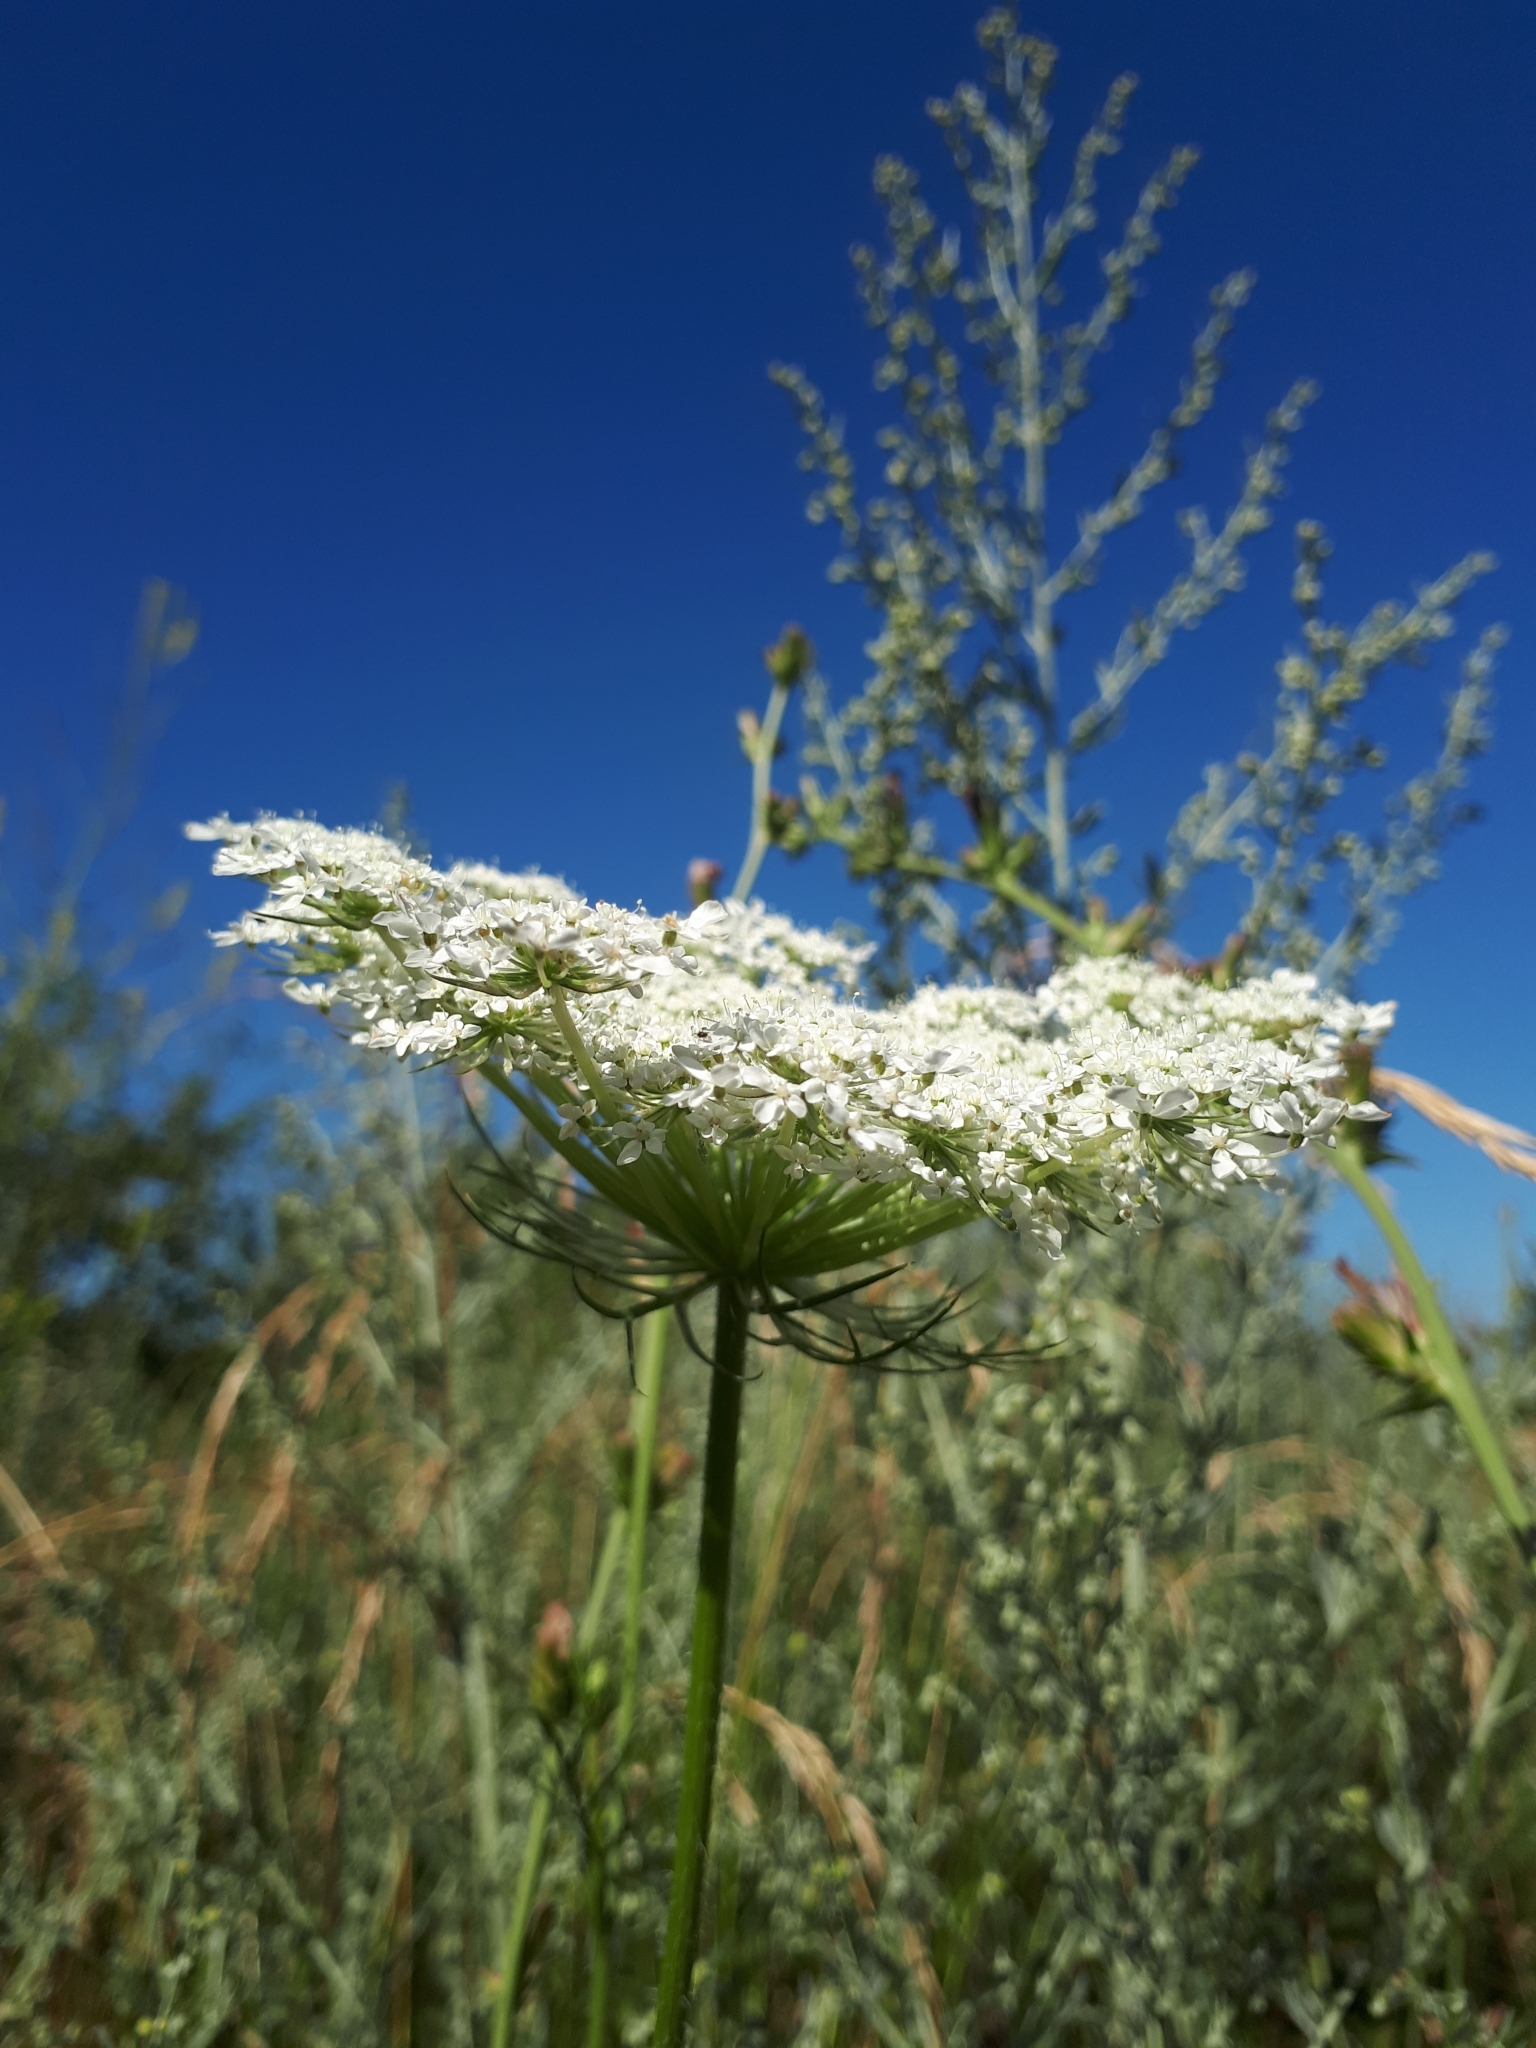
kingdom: Plantae
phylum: Tracheophyta
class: Magnoliopsida
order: Apiales
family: Apiaceae
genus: Daucus
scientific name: Daucus carota
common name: Wild carrot
